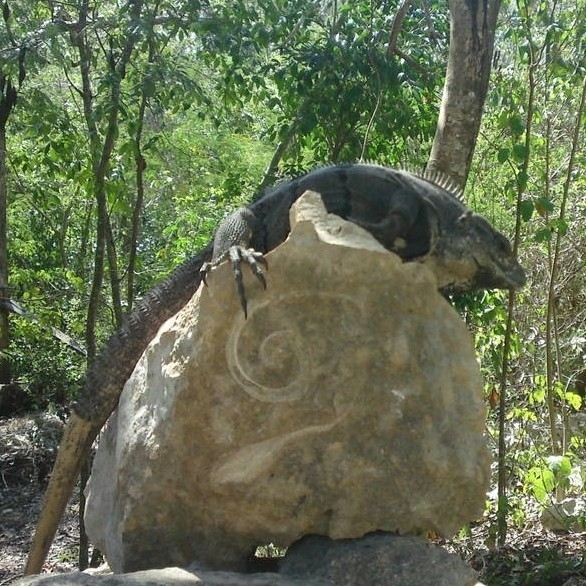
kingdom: Animalia
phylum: Chordata
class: Squamata
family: Iguanidae
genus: Ctenosaura
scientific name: Ctenosaura similis
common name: Black spiny-tailed iguana
